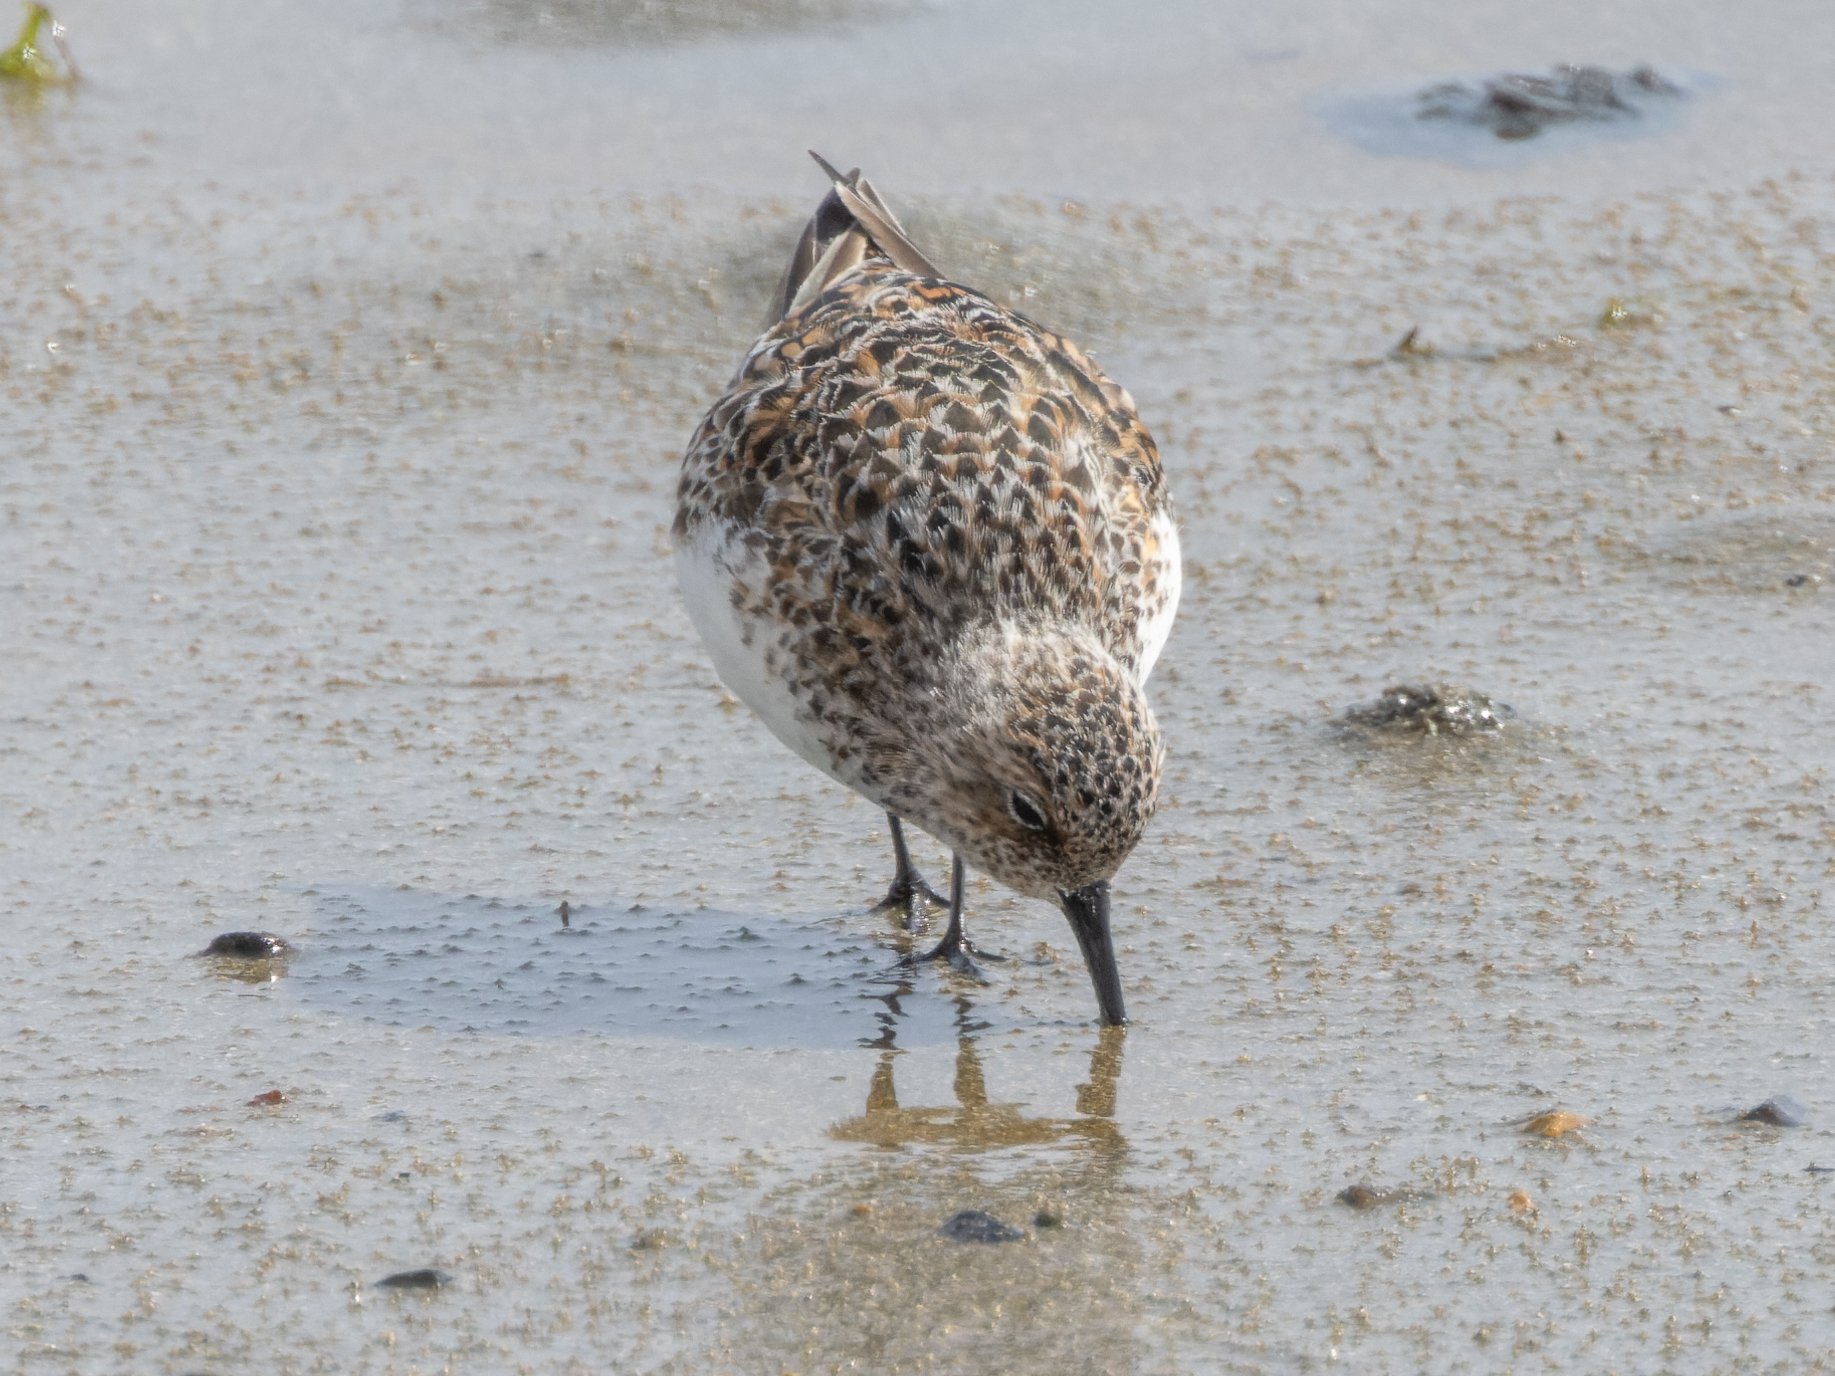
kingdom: Animalia
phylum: Chordata
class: Aves
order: Charadriiformes
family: Scolopacidae
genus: Calidris
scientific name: Calidris alba
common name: Sanderling
